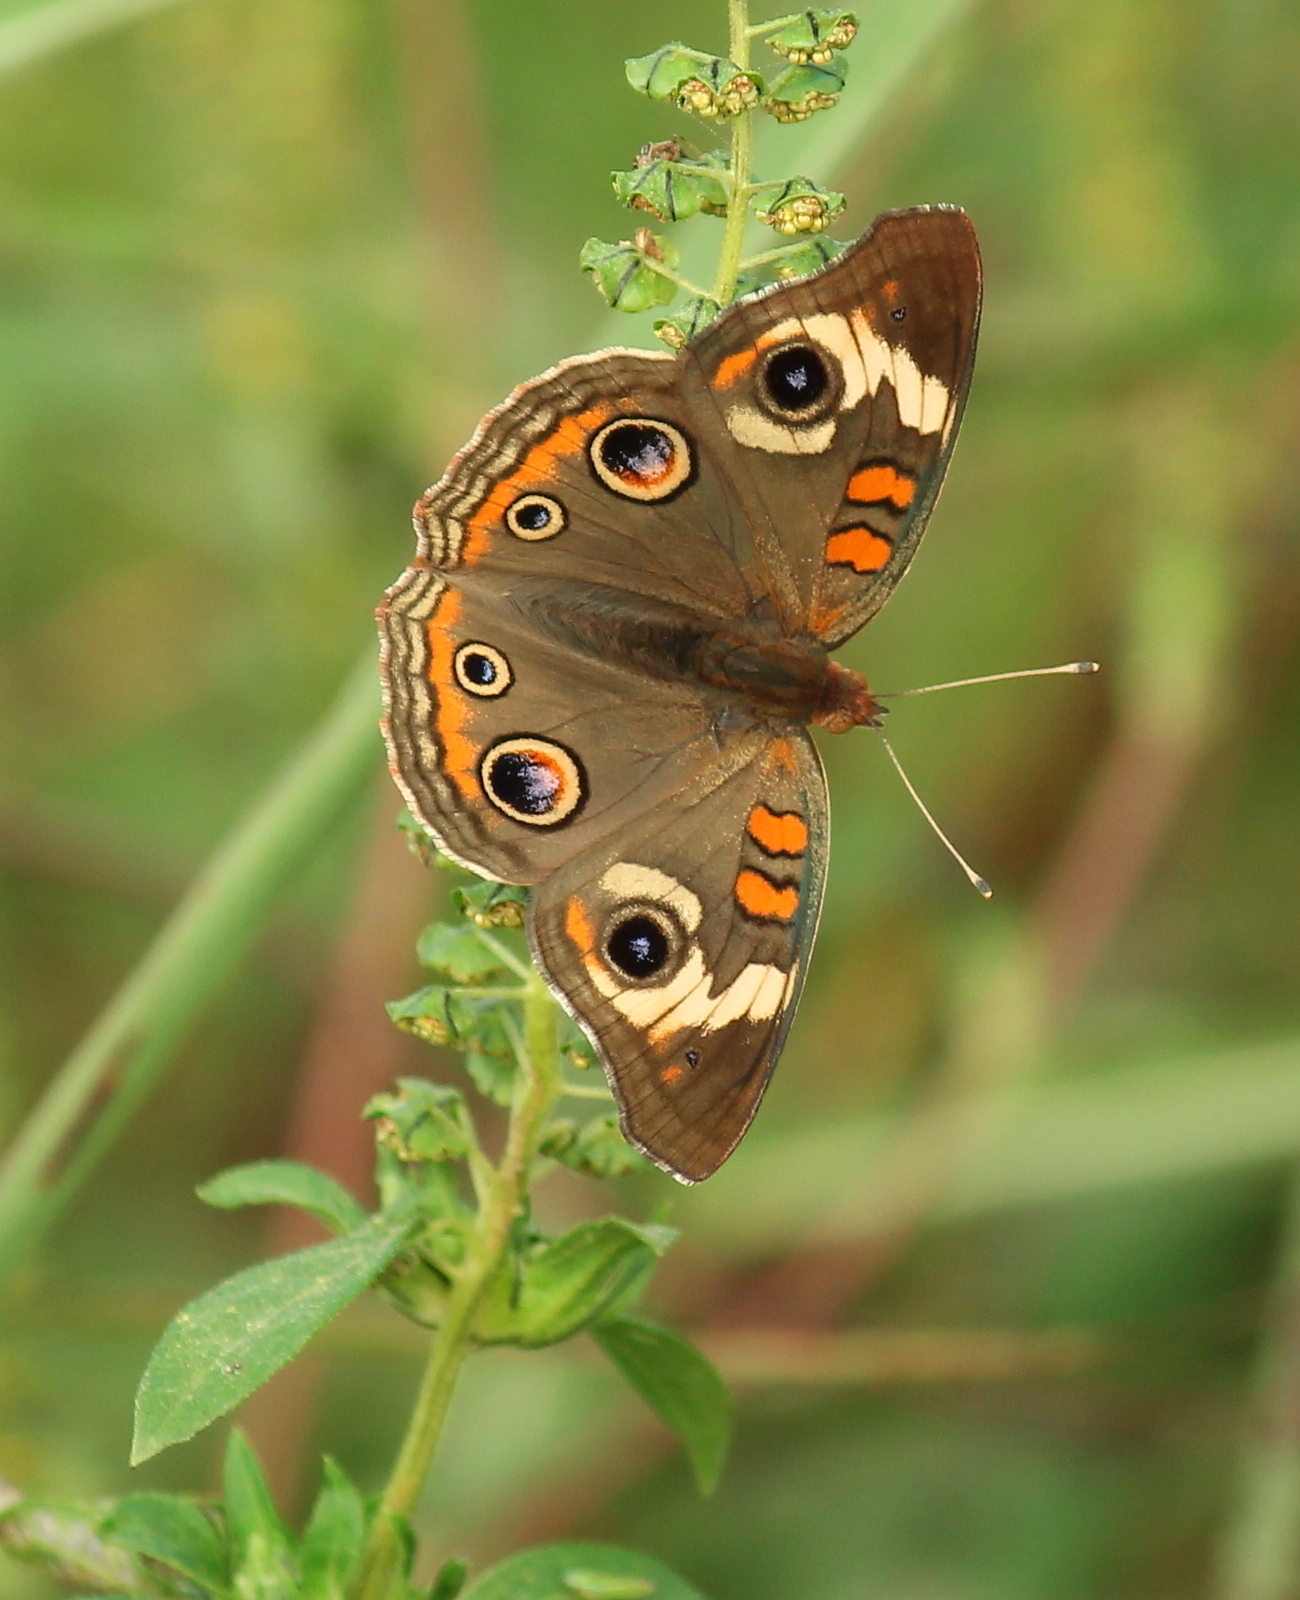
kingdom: Animalia
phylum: Arthropoda
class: Insecta
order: Lepidoptera
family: Nymphalidae
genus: Junonia
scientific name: Junonia coenia
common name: Common buckeye
